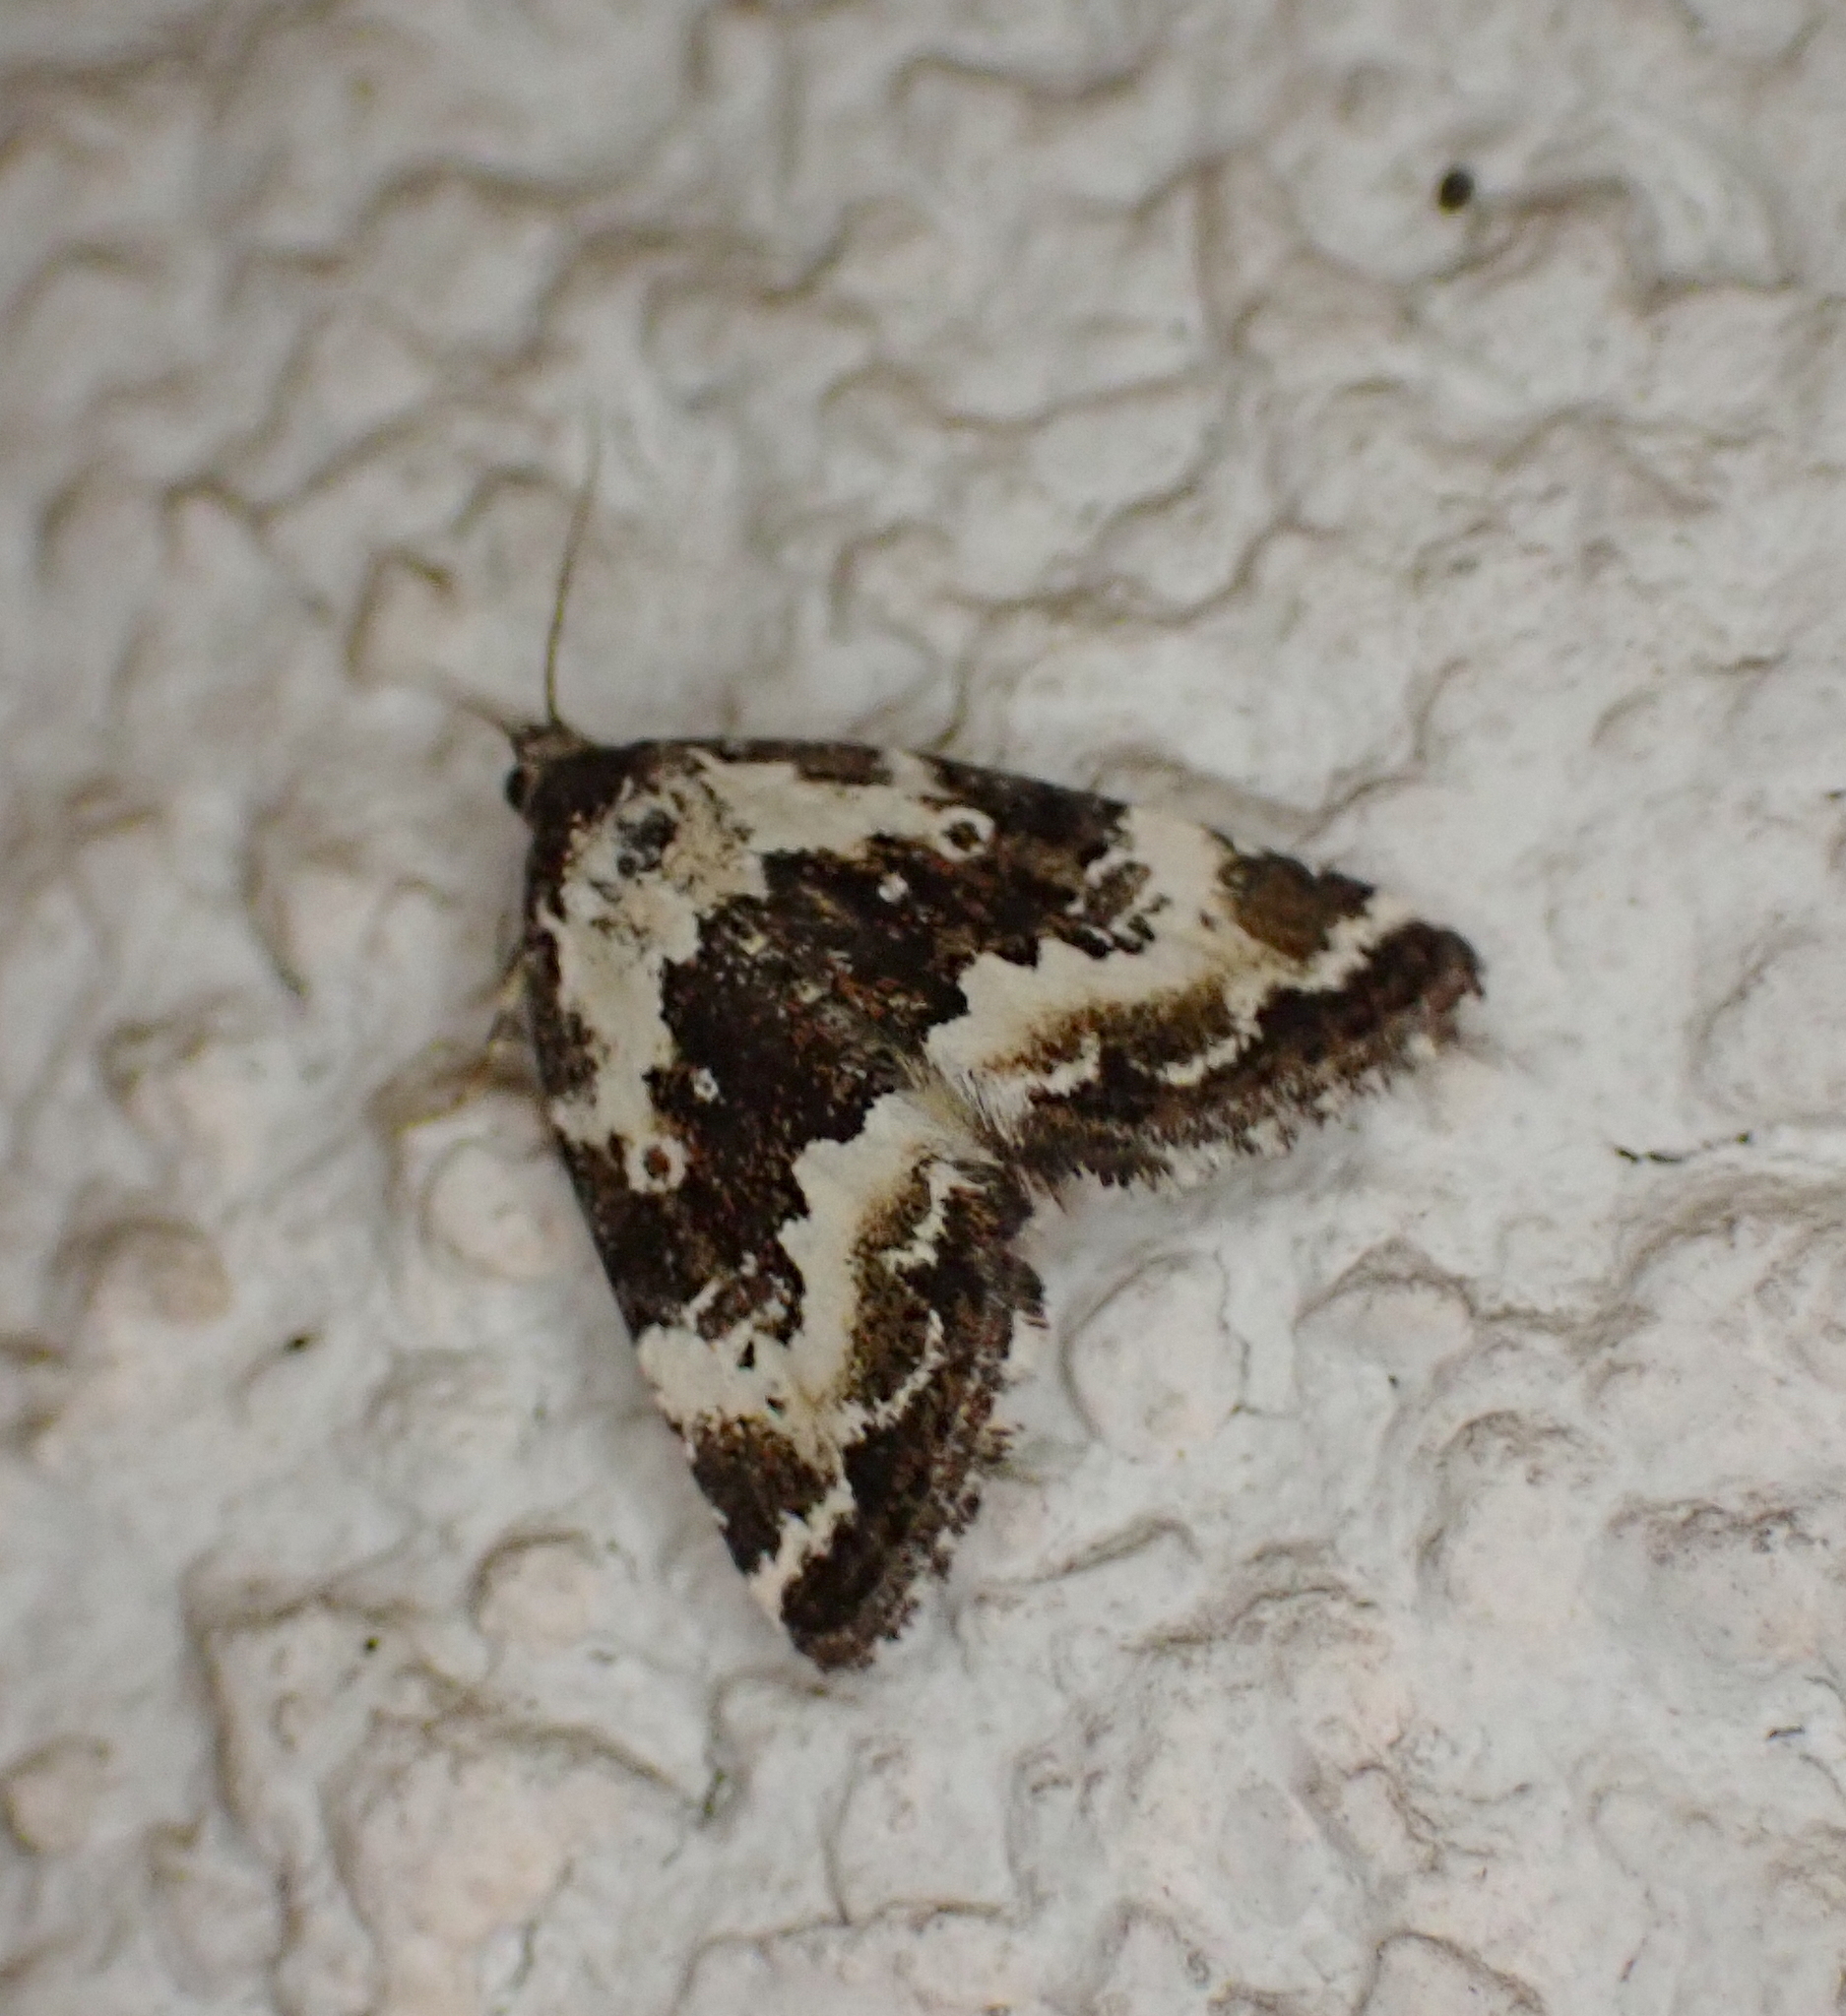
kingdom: Animalia
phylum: Arthropoda
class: Insecta
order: Lepidoptera
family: Noctuidae
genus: Deltote
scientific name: Deltote deceptoria
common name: Pretty marbled
